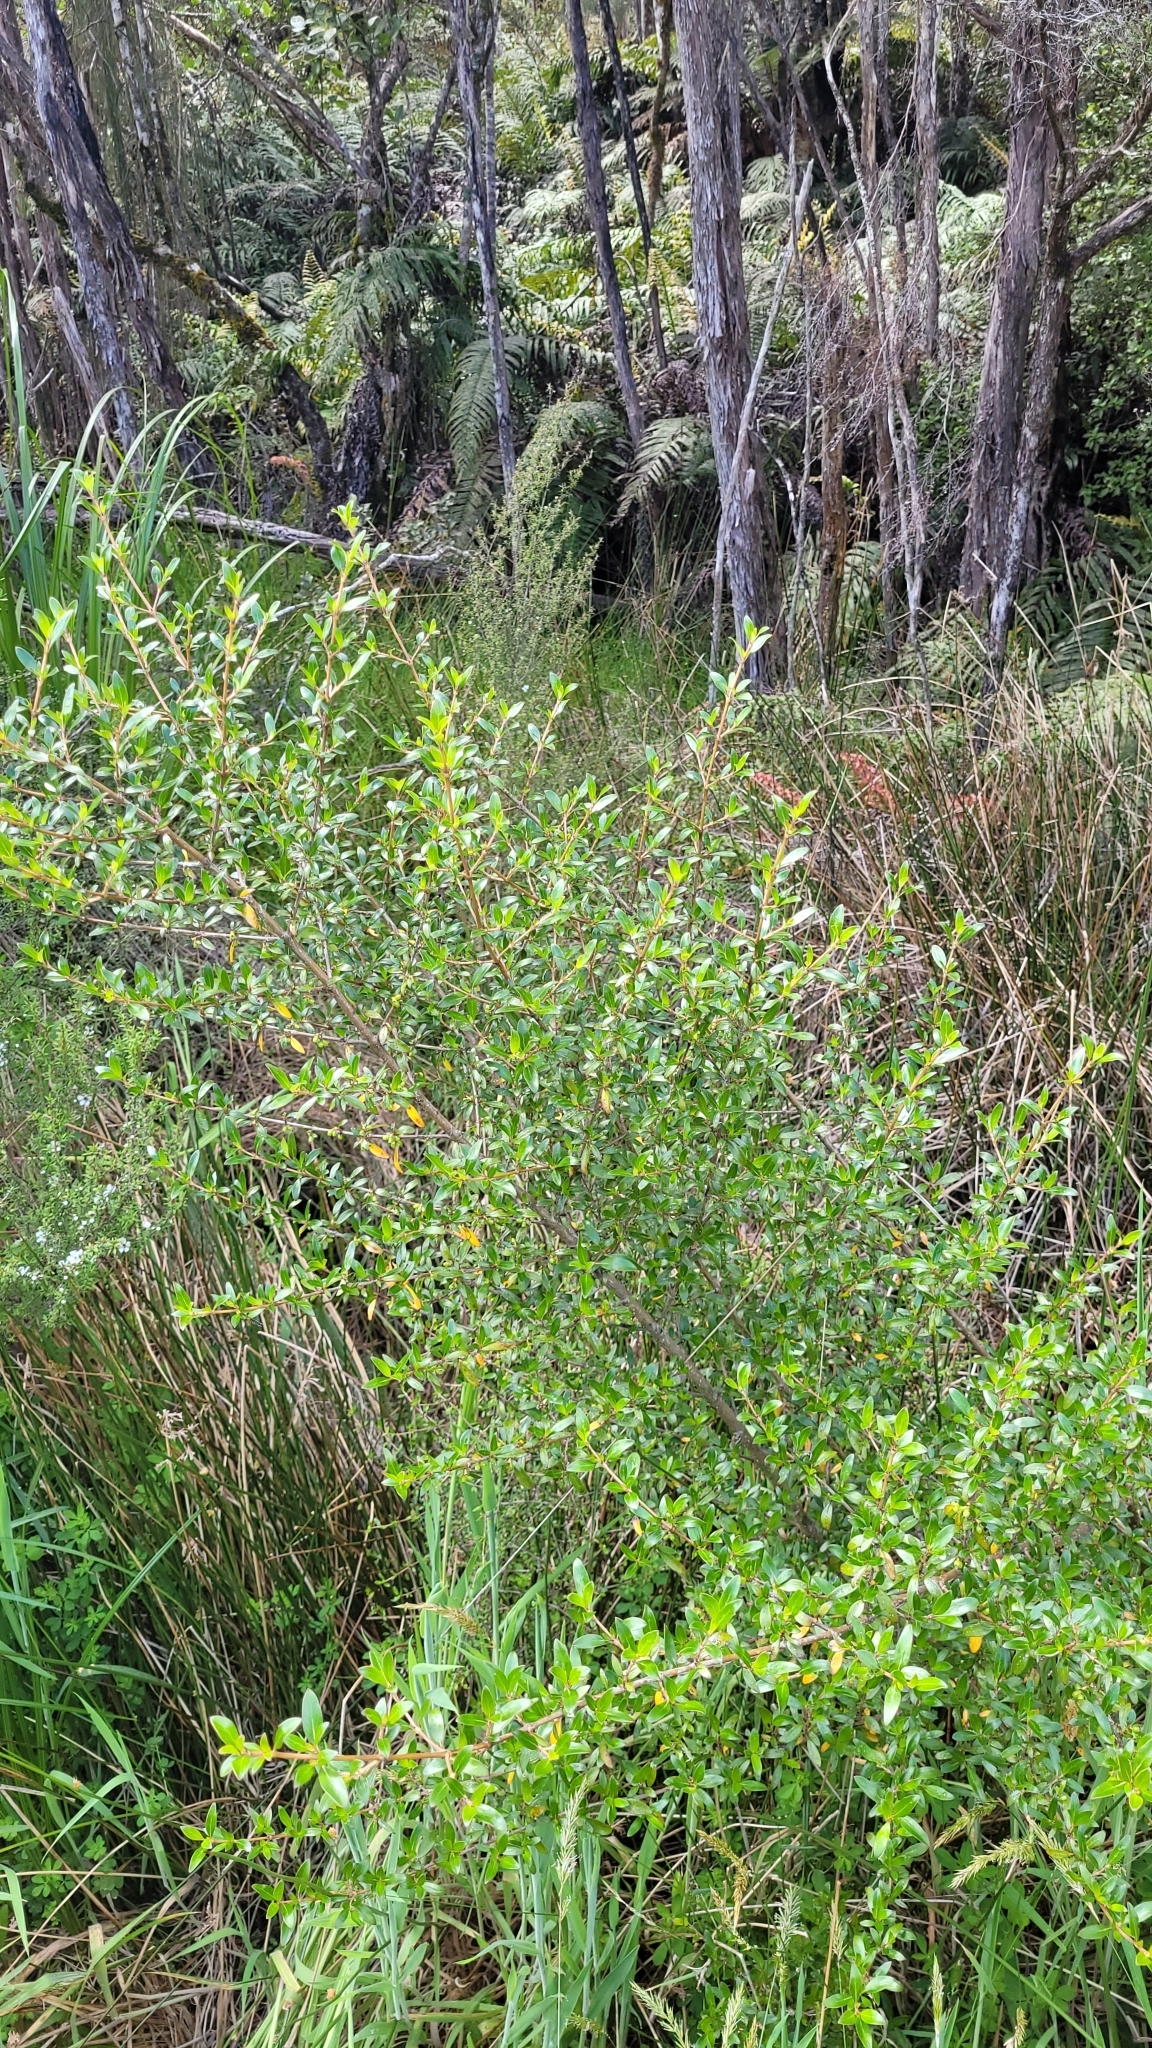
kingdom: Plantae
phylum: Tracheophyta
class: Magnoliopsida
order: Gentianales
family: Rubiaceae
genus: Coprosma
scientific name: Coprosma cunninghamii
